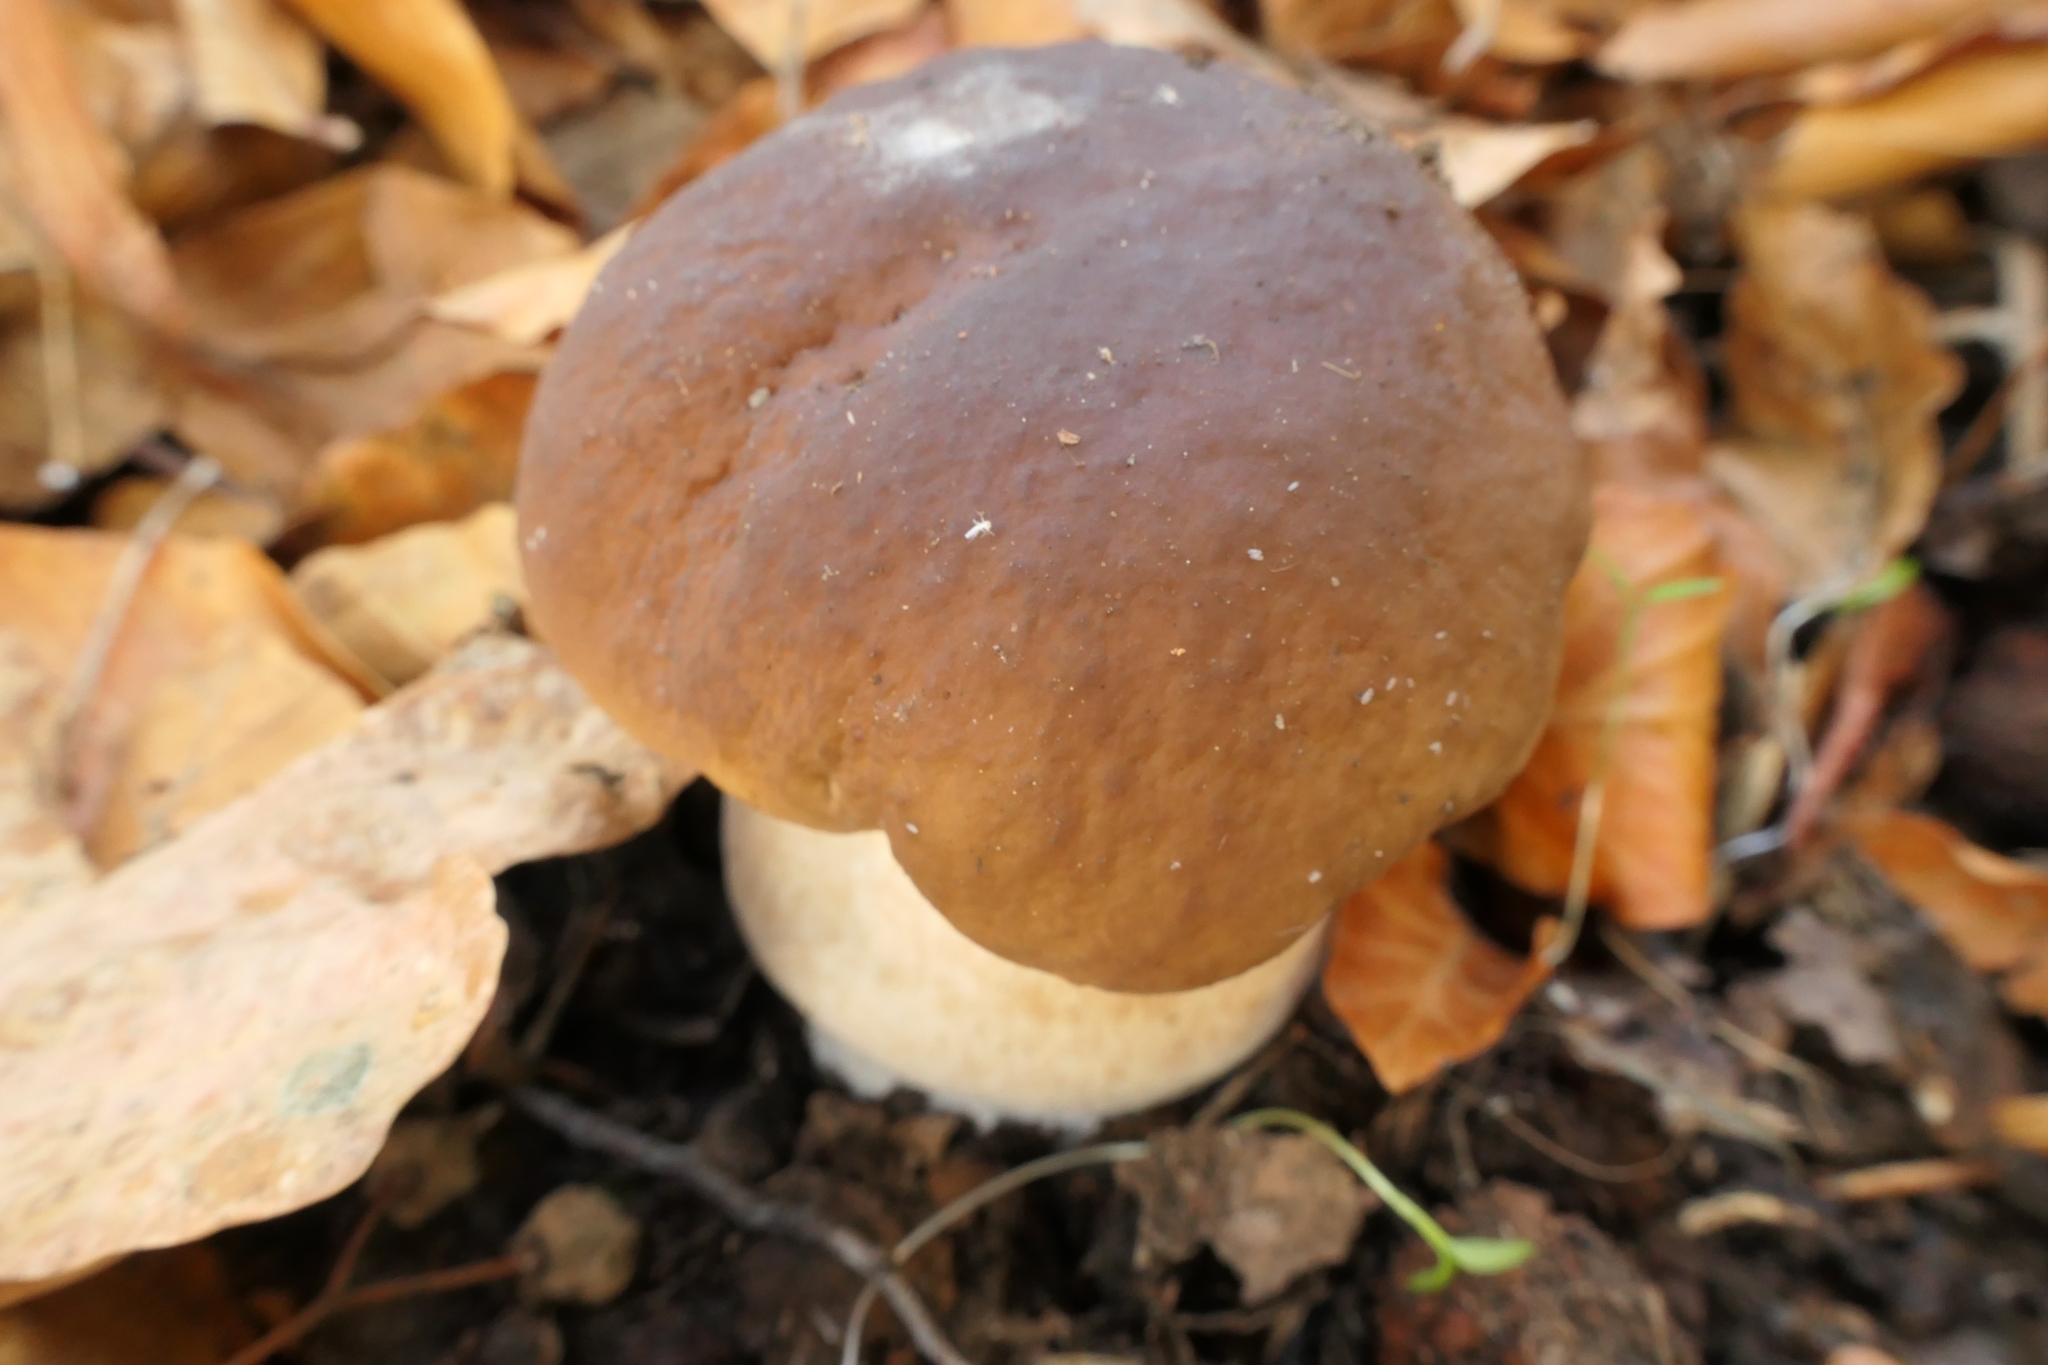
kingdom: Fungi
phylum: Basidiomycota
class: Agaricomycetes
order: Boletales
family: Boletaceae
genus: Boletus
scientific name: Boletus edulis
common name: Cep
